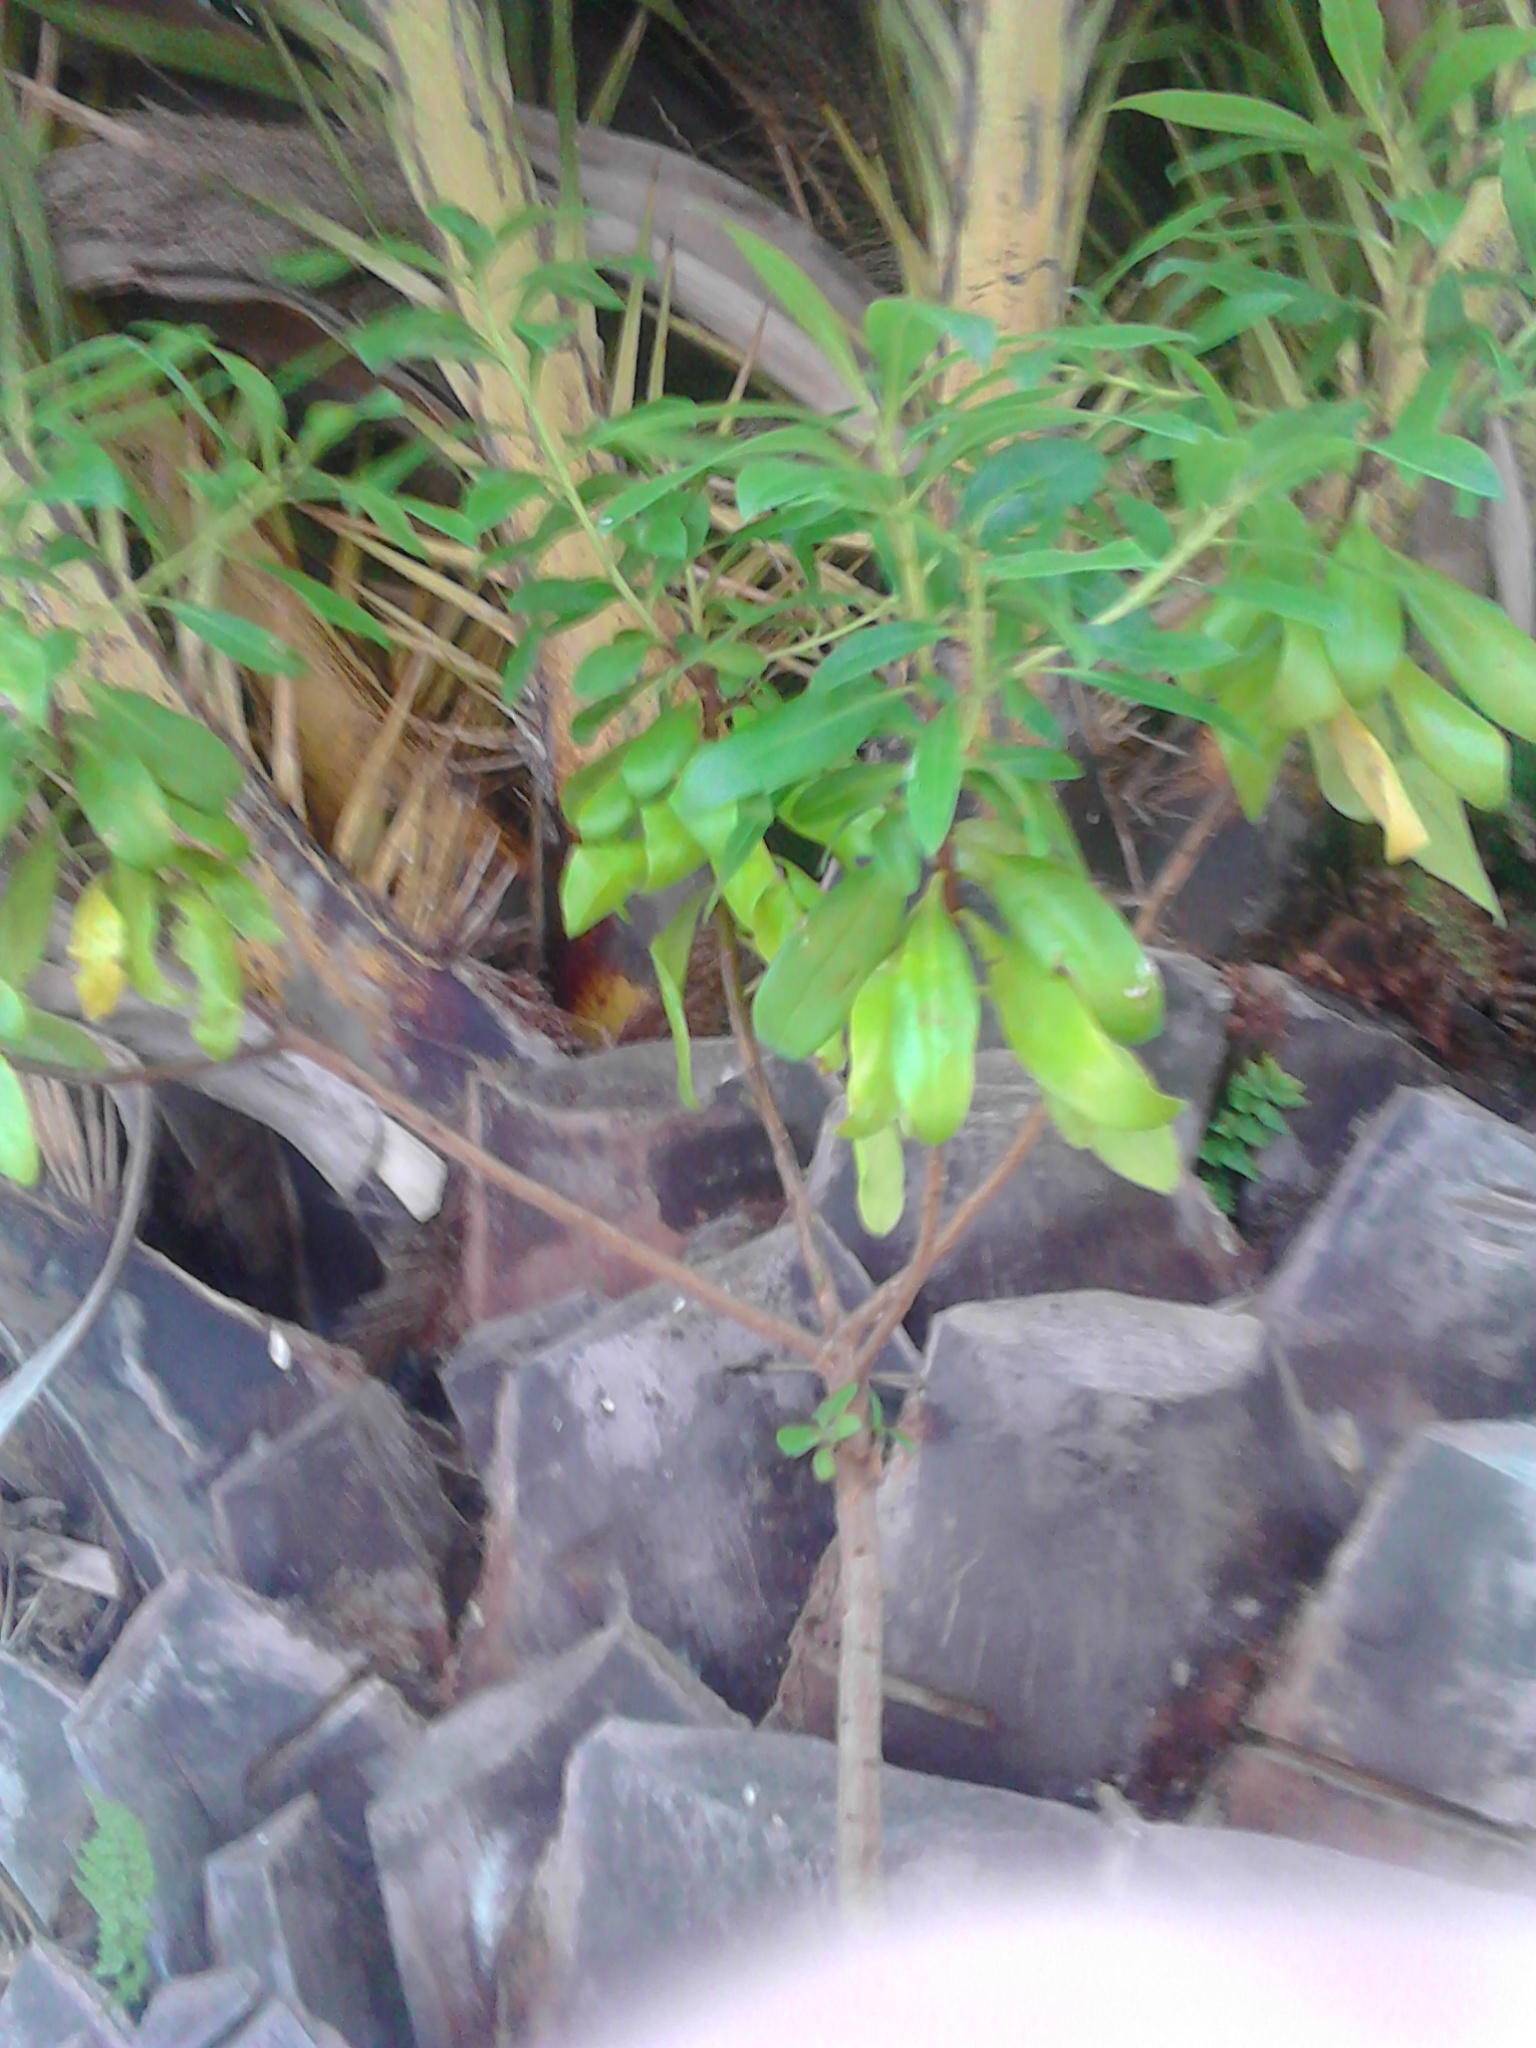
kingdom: Plantae
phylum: Tracheophyta
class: Magnoliopsida
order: Lamiales
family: Scrophulariaceae
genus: Myoporum
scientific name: Myoporum laetum
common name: Ngaio tree
